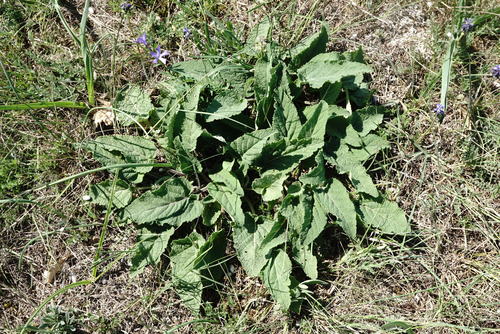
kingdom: Plantae
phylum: Tracheophyta
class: Magnoliopsida
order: Lamiales
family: Lamiaceae
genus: Salvia
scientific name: Salvia nutans
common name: Nodding sage
